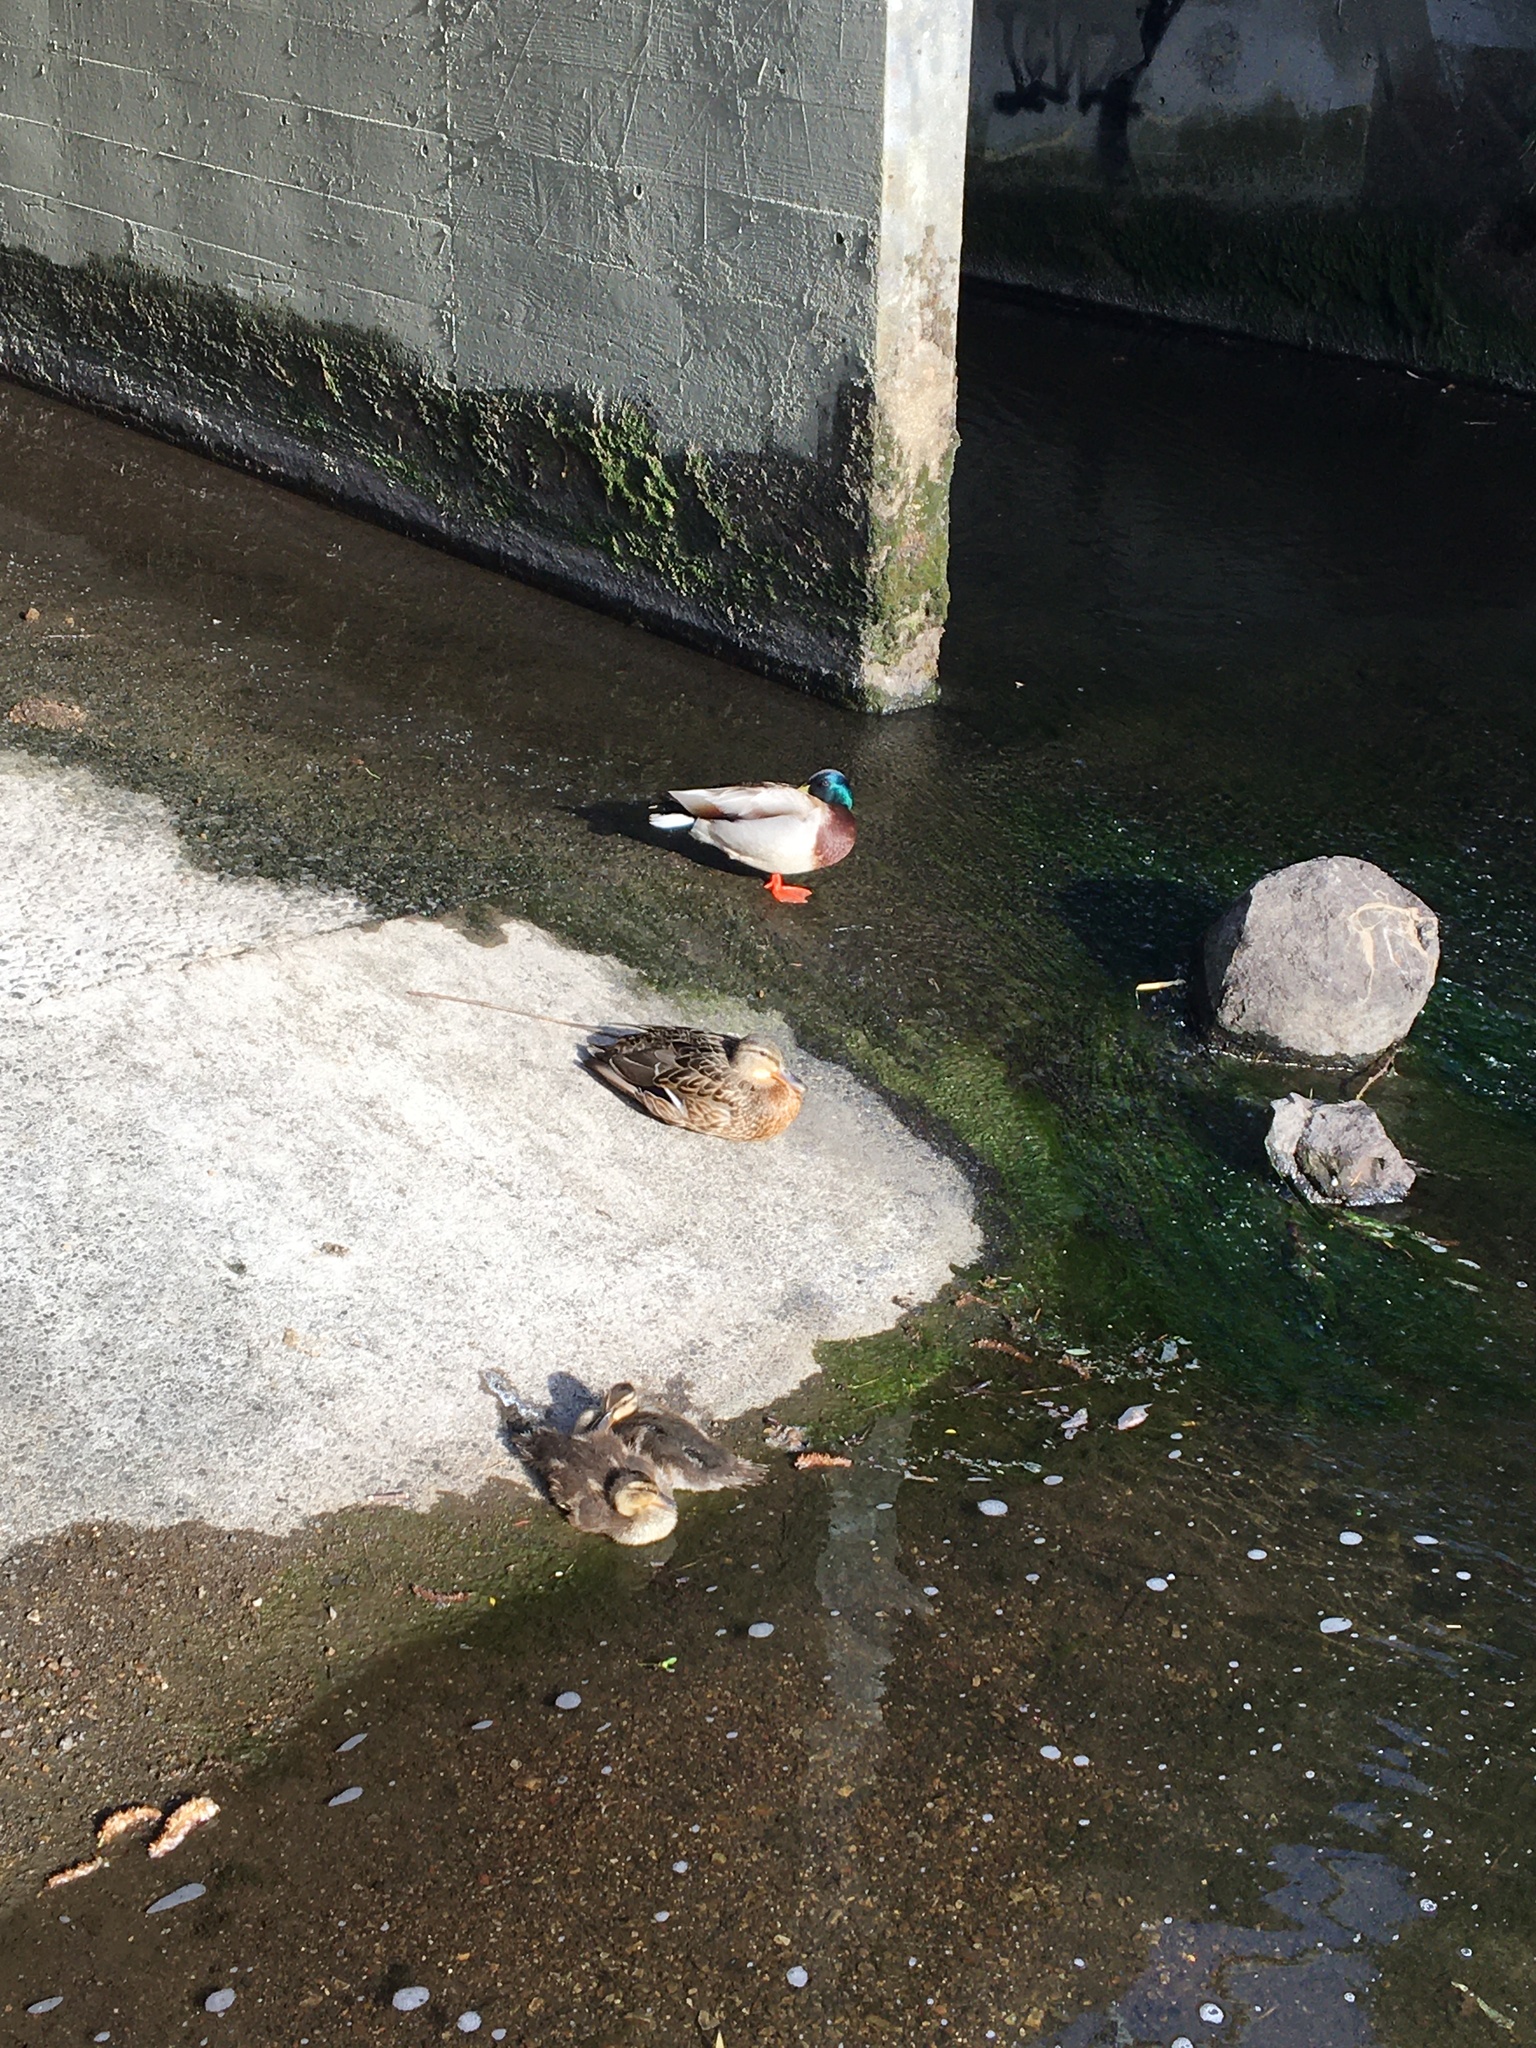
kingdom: Animalia
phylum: Chordata
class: Aves
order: Anseriformes
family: Anatidae
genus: Anas
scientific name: Anas platyrhynchos
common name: Mallard
